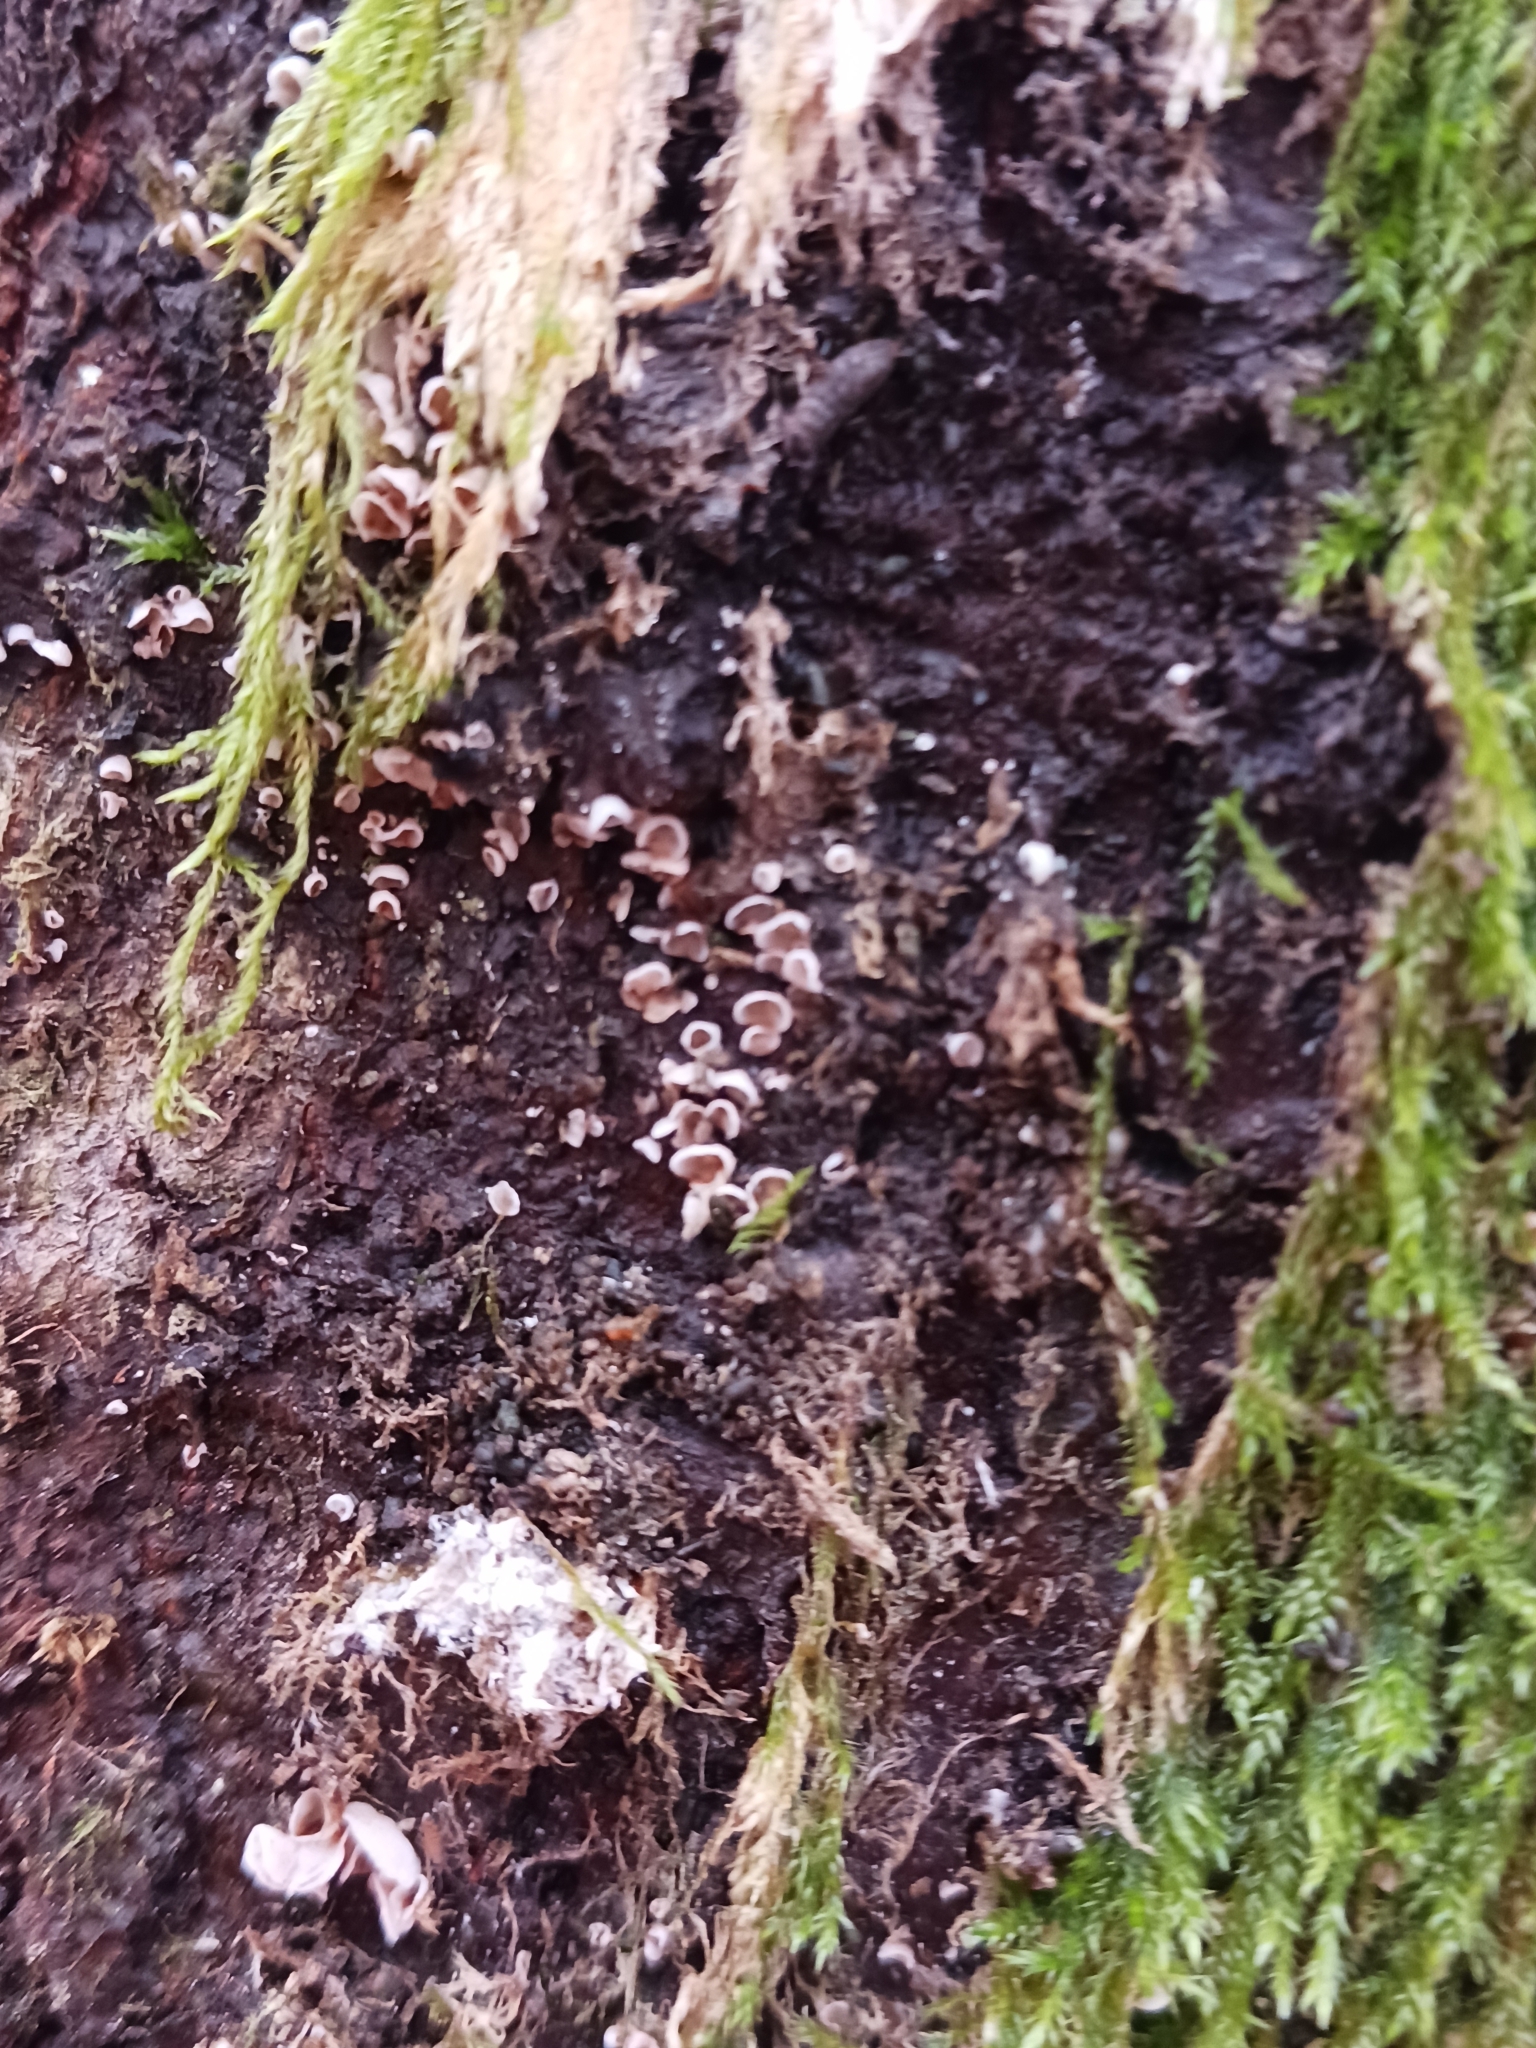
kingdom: Fungi
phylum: Basidiomycota
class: Agaricomycetes
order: Agaricales
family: Chromocyphellaceae
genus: Chromocyphella
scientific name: Chromocyphella muscicola
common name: Moss ear
